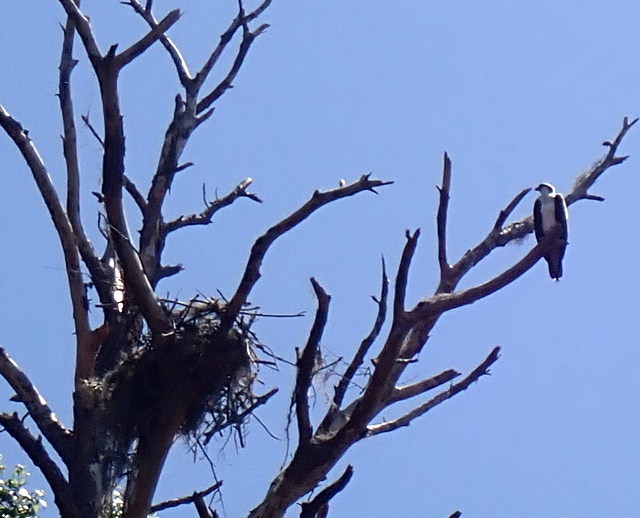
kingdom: Animalia
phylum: Chordata
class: Aves
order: Accipitriformes
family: Pandionidae
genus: Pandion
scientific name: Pandion haliaetus
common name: Osprey
